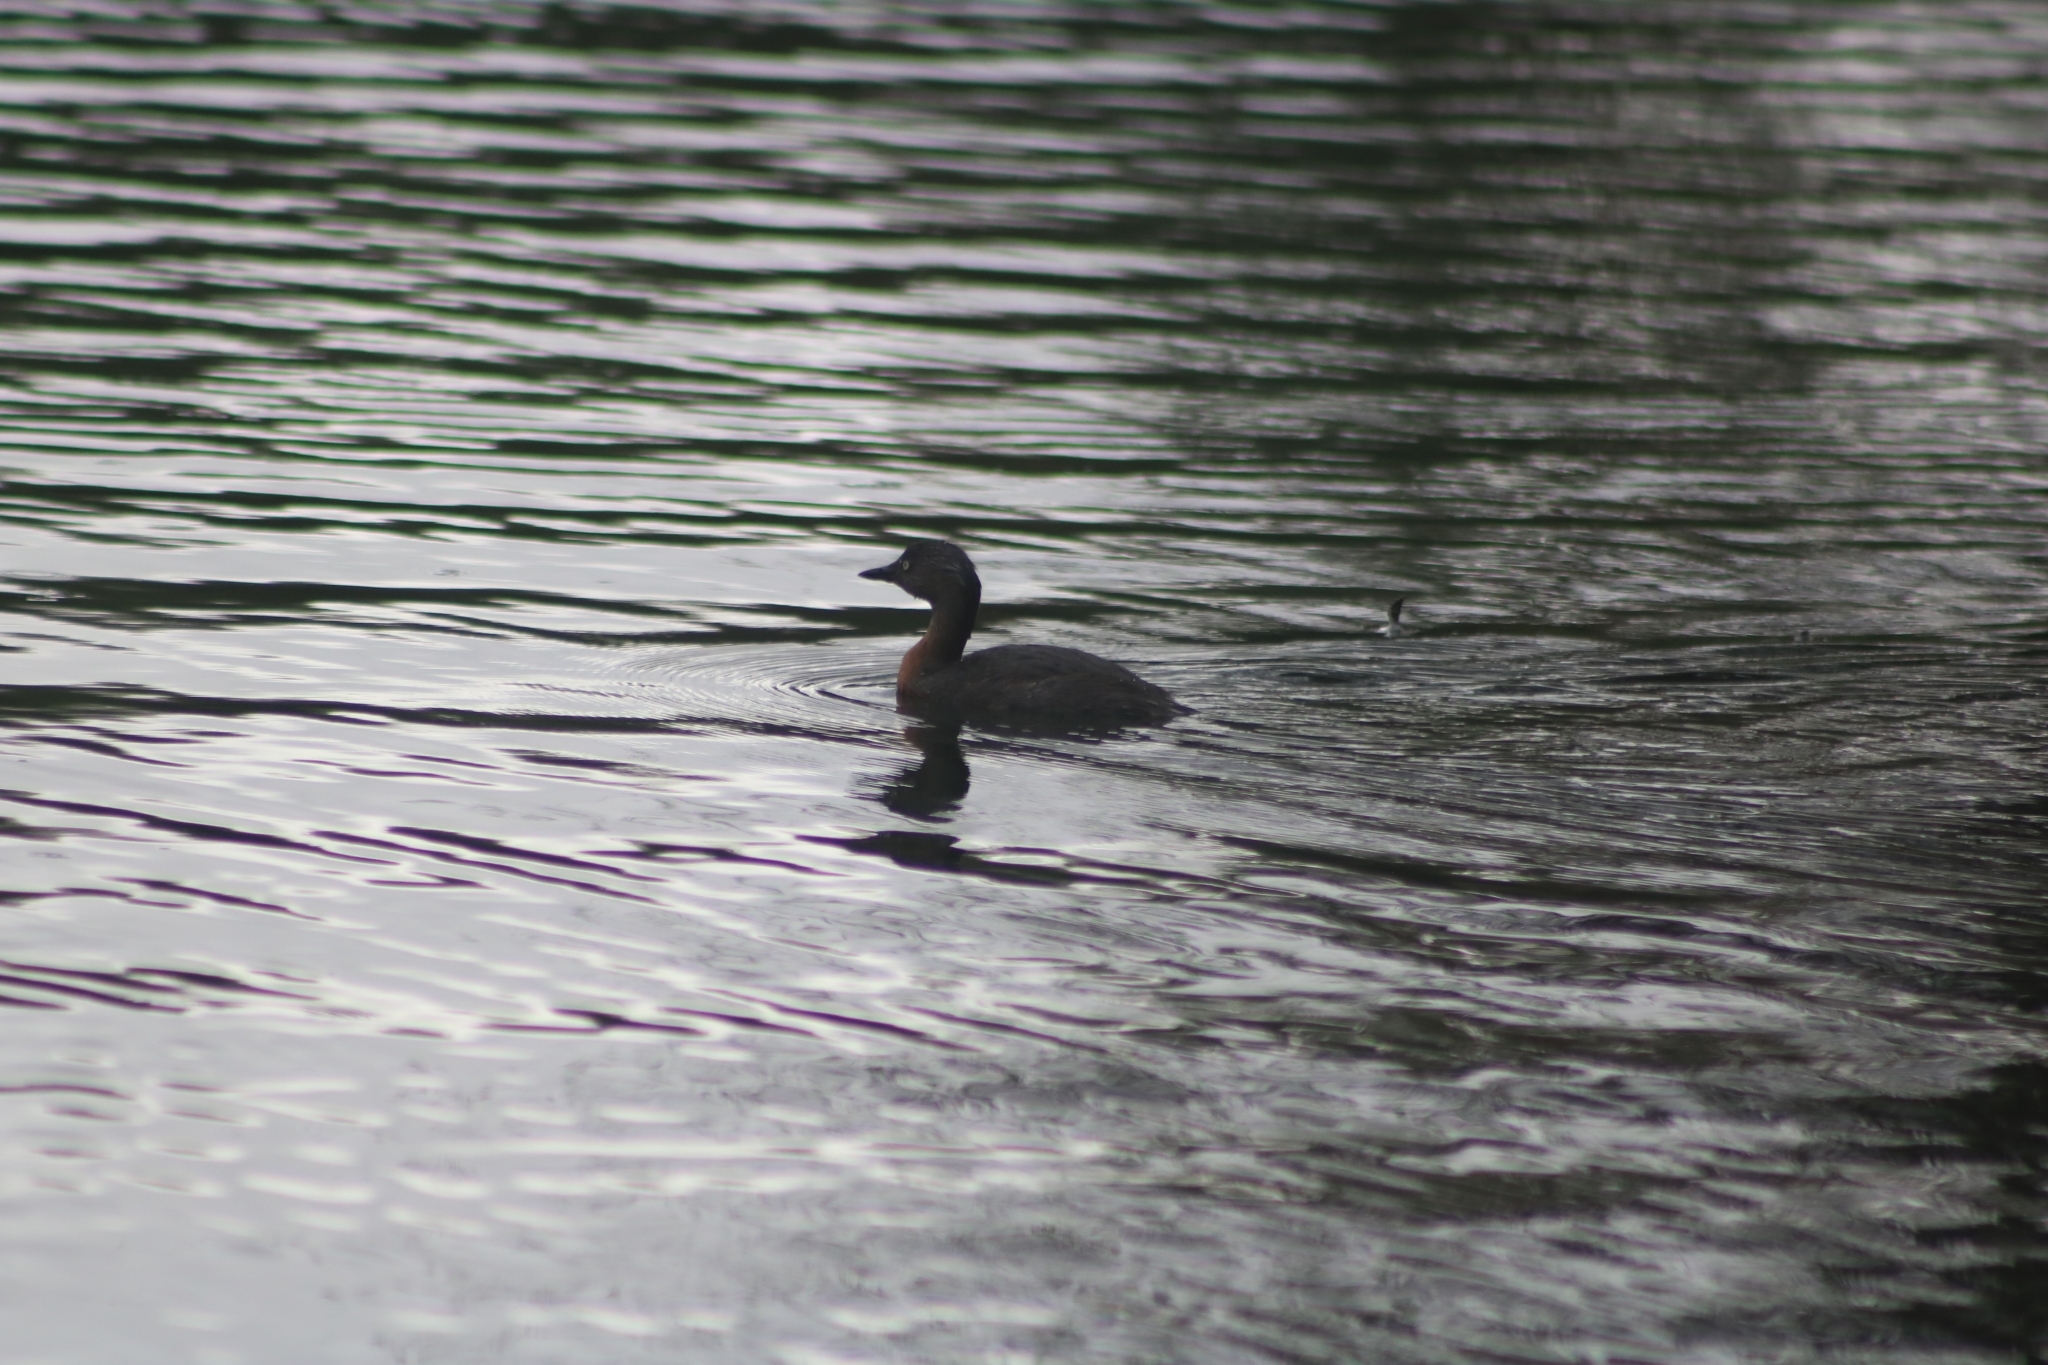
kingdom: Animalia
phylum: Chordata
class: Aves
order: Podicipediformes
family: Podicipedidae
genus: Poliocephalus
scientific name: Poliocephalus rufopectus
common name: New zealand grebe
